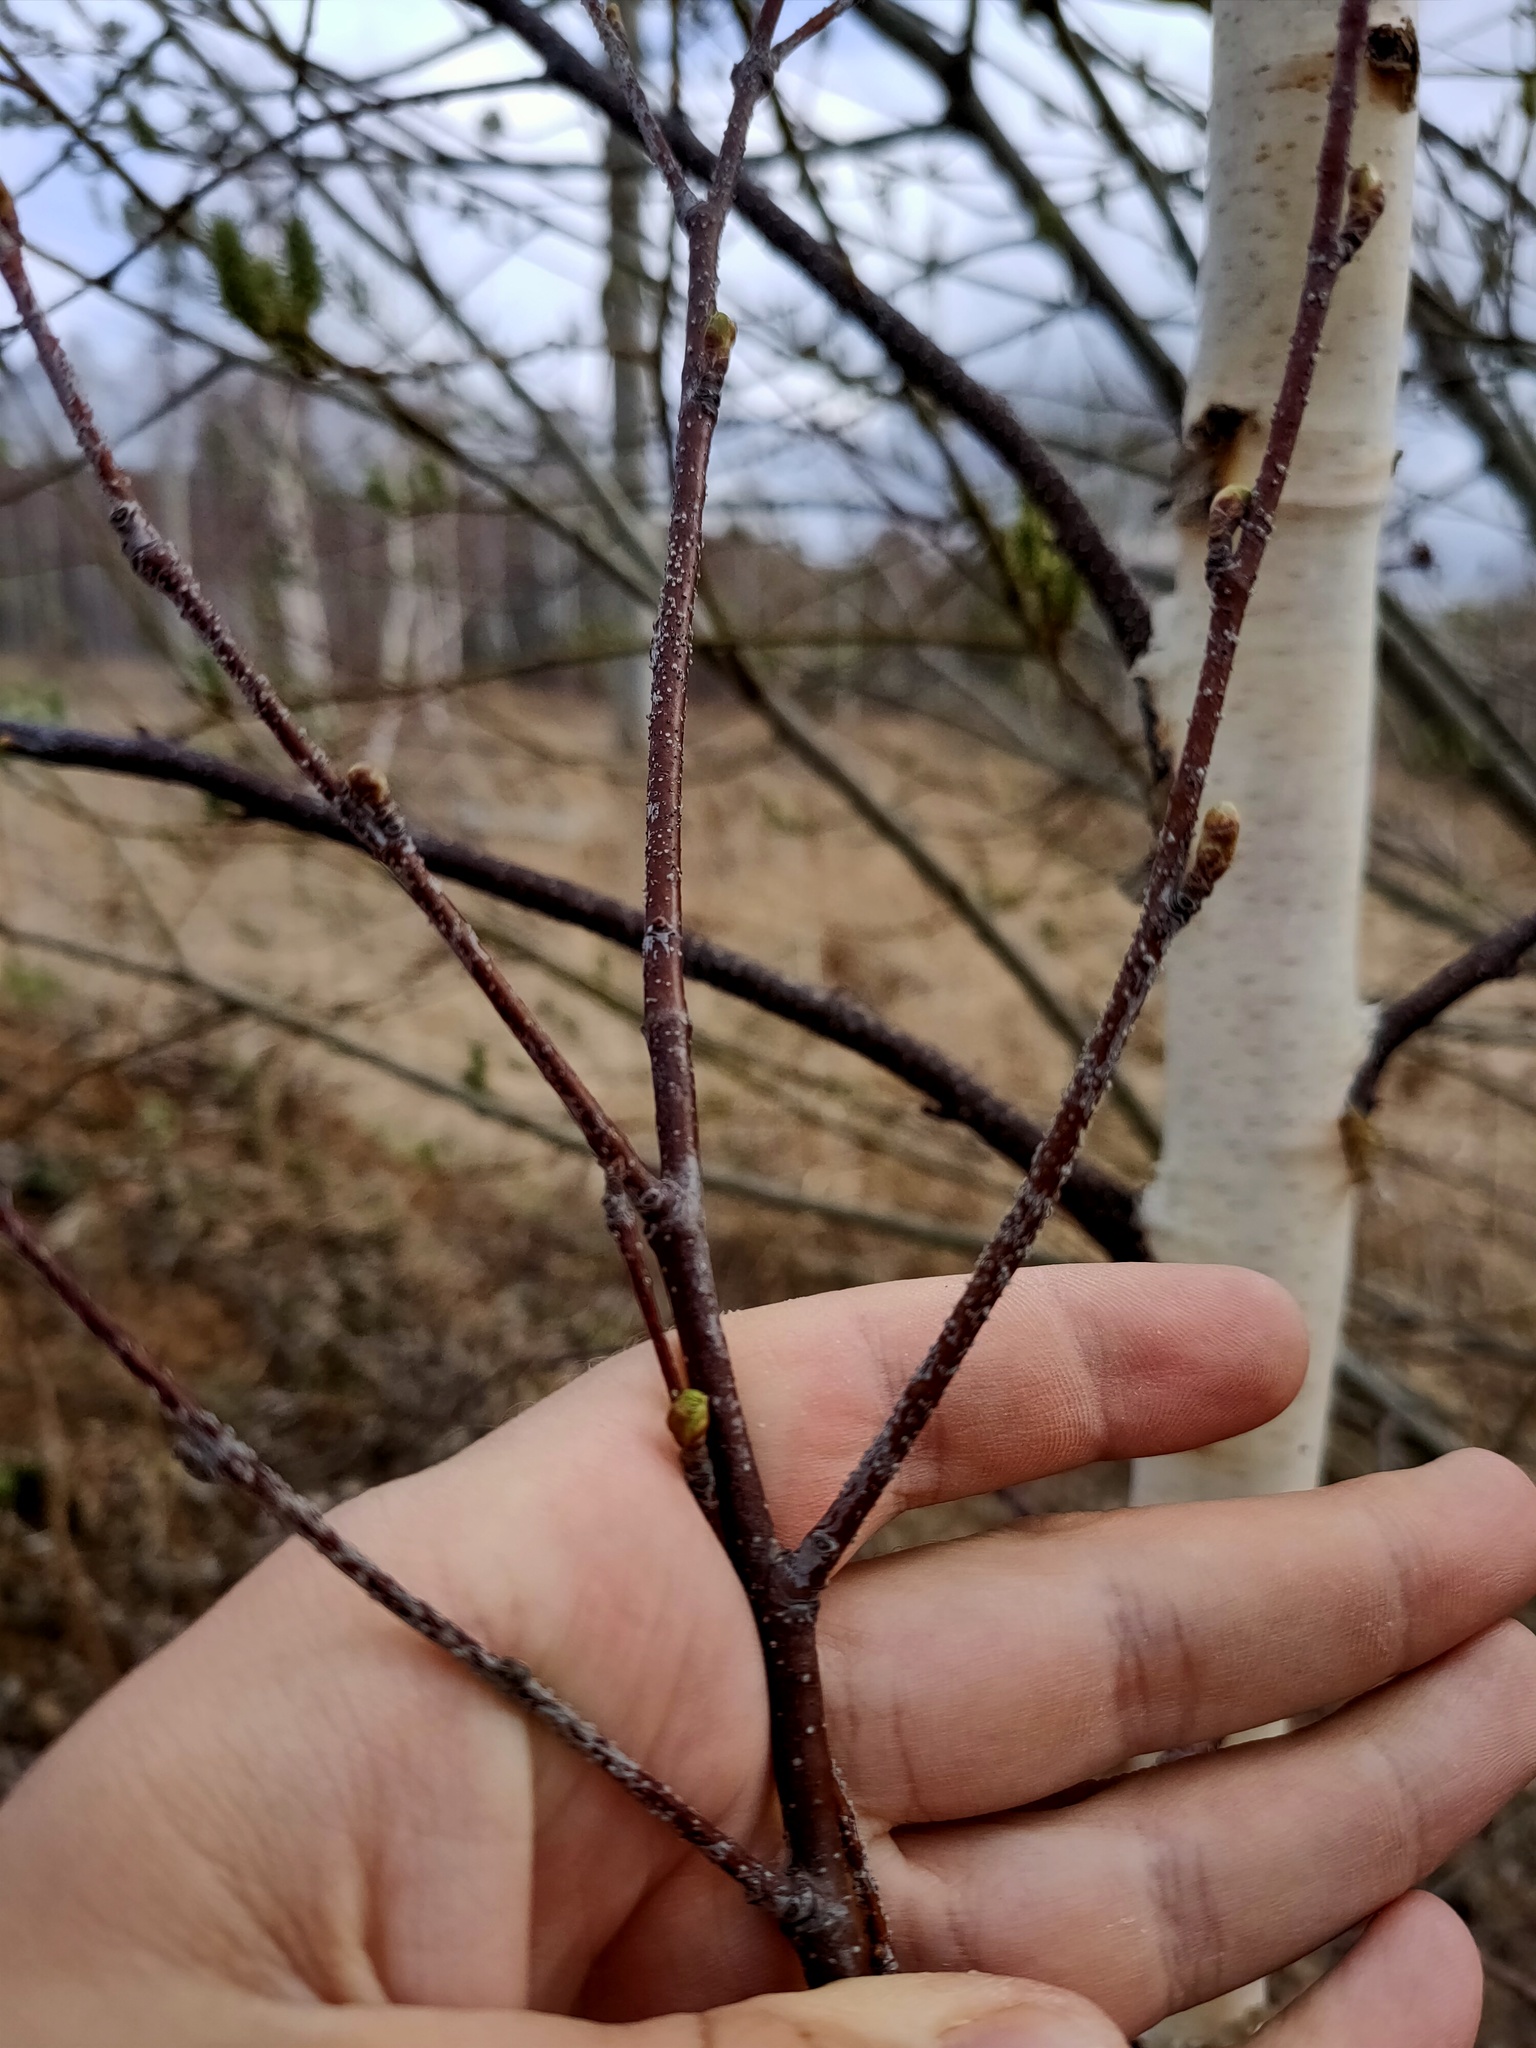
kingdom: Plantae
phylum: Tracheophyta
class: Magnoliopsida
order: Fagales
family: Betulaceae
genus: Betula
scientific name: Betula pendula
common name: Silver birch
